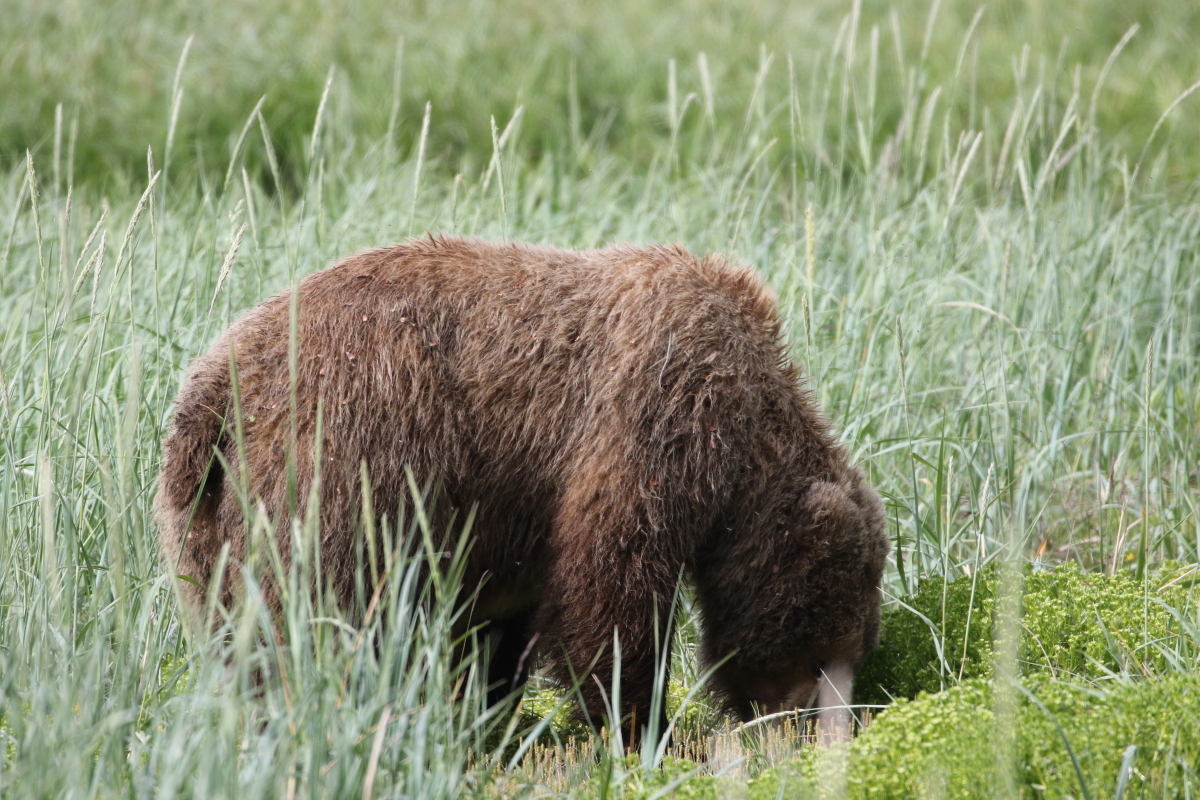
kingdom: Animalia
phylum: Chordata
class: Mammalia
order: Carnivora
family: Ursidae
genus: Ursus
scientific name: Ursus arctos
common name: Brown bear
